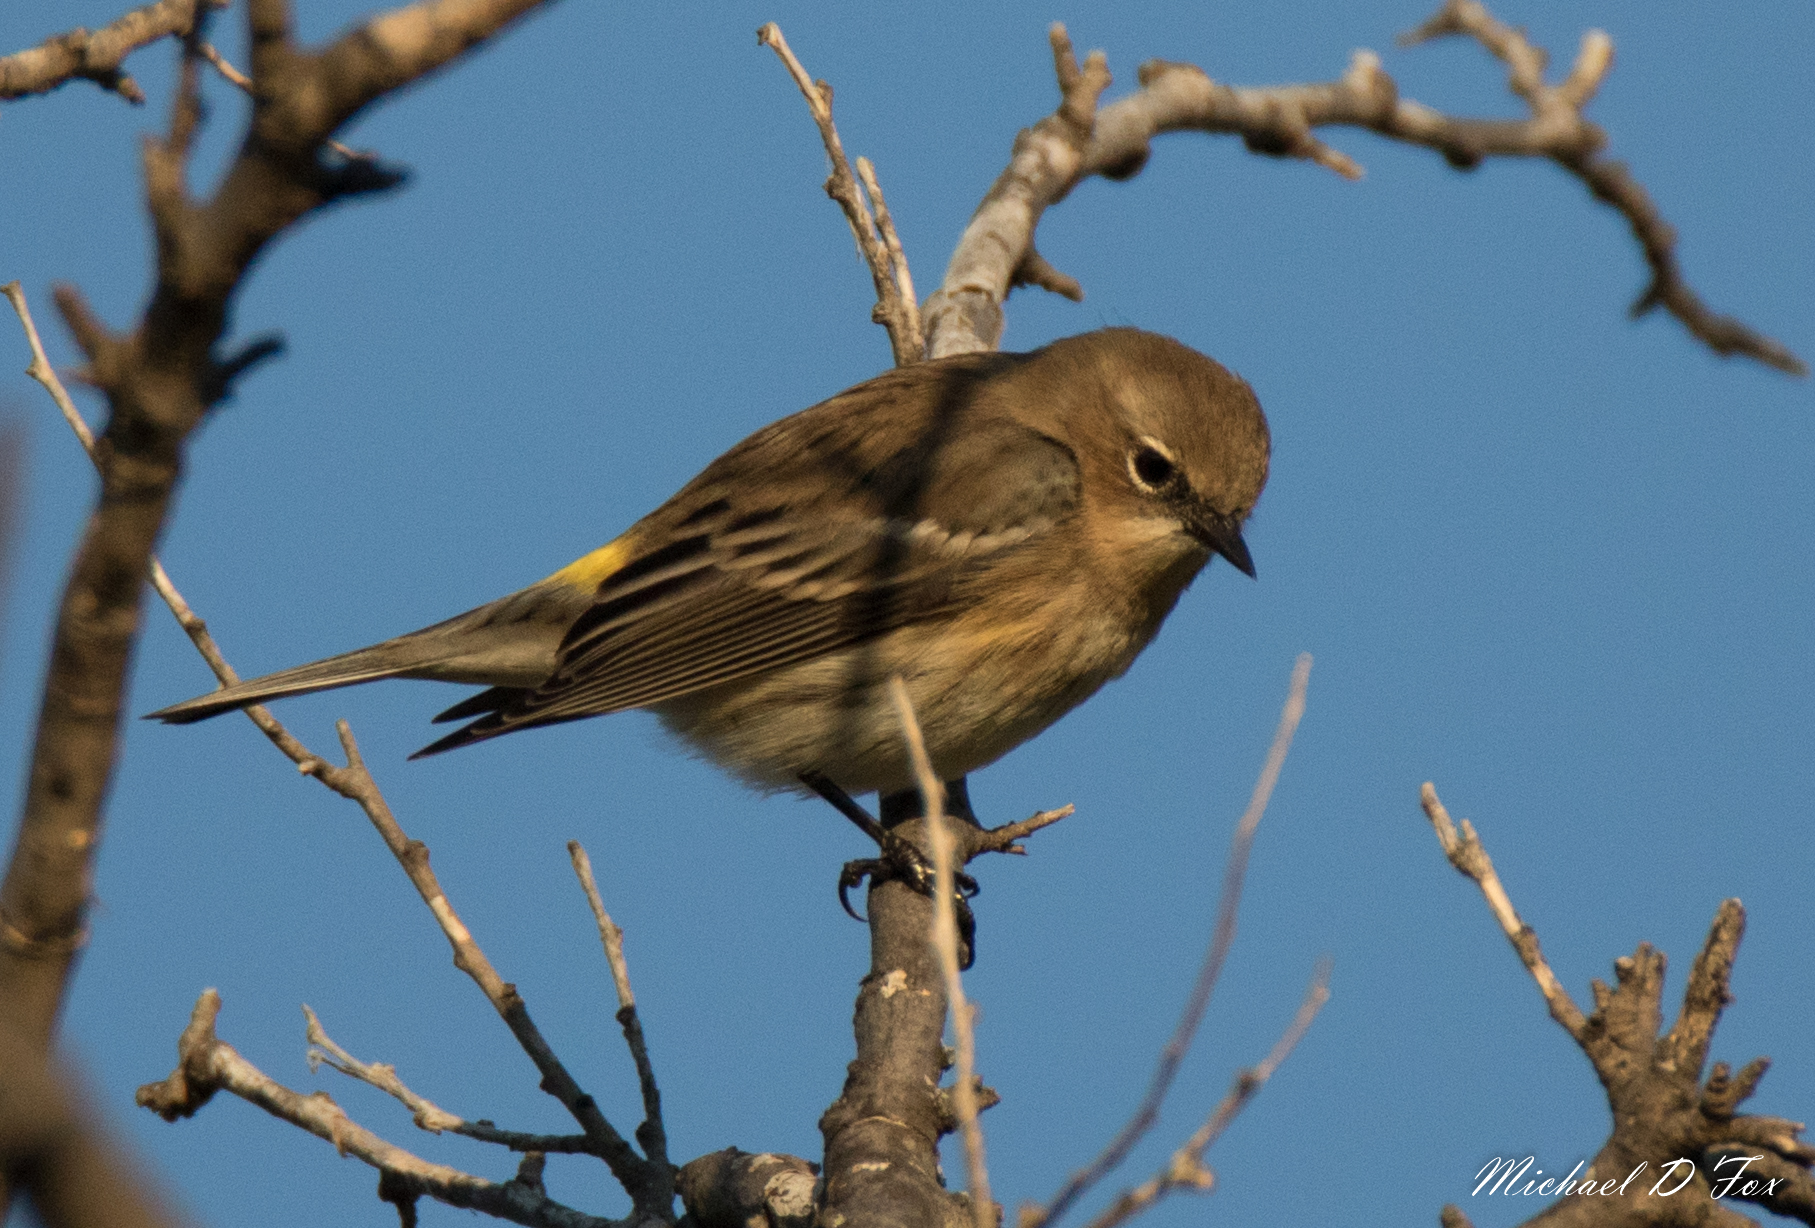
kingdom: Animalia
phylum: Chordata
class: Aves
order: Passeriformes
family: Parulidae
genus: Setophaga
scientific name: Setophaga coronata
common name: Myrtle warbler
